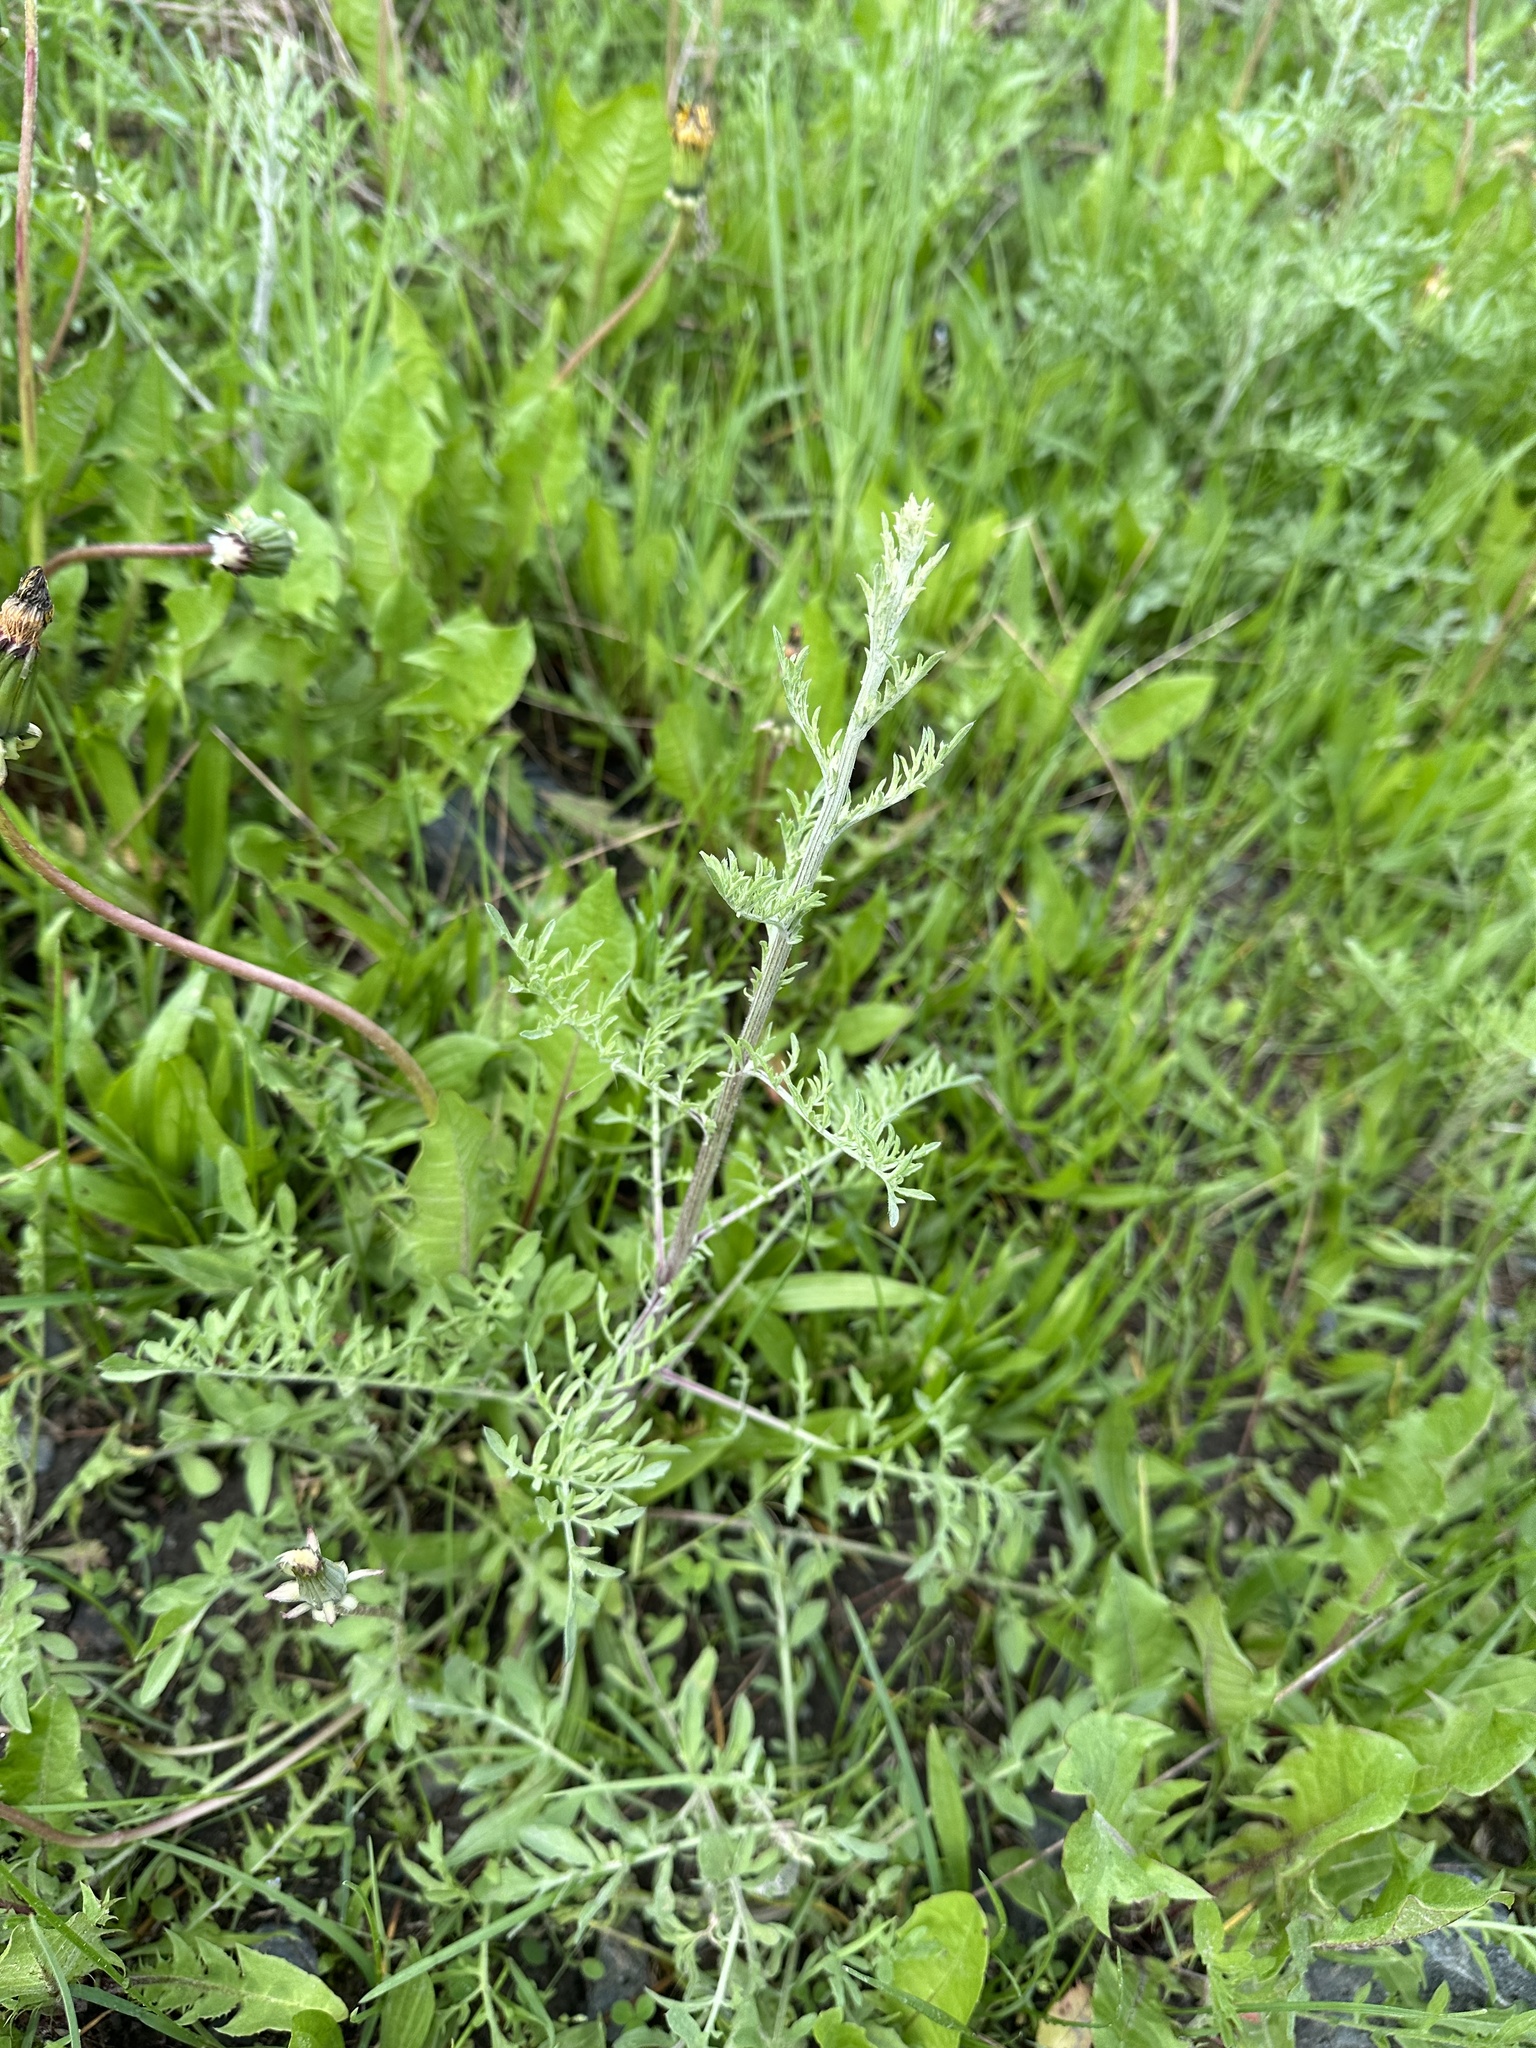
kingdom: Plantae
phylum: Tracheophyta
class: Magnoliopsida
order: Asterales
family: Asteraceae
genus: Centaurea
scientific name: Centaurea diffusa
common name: Diffuse knapweed
